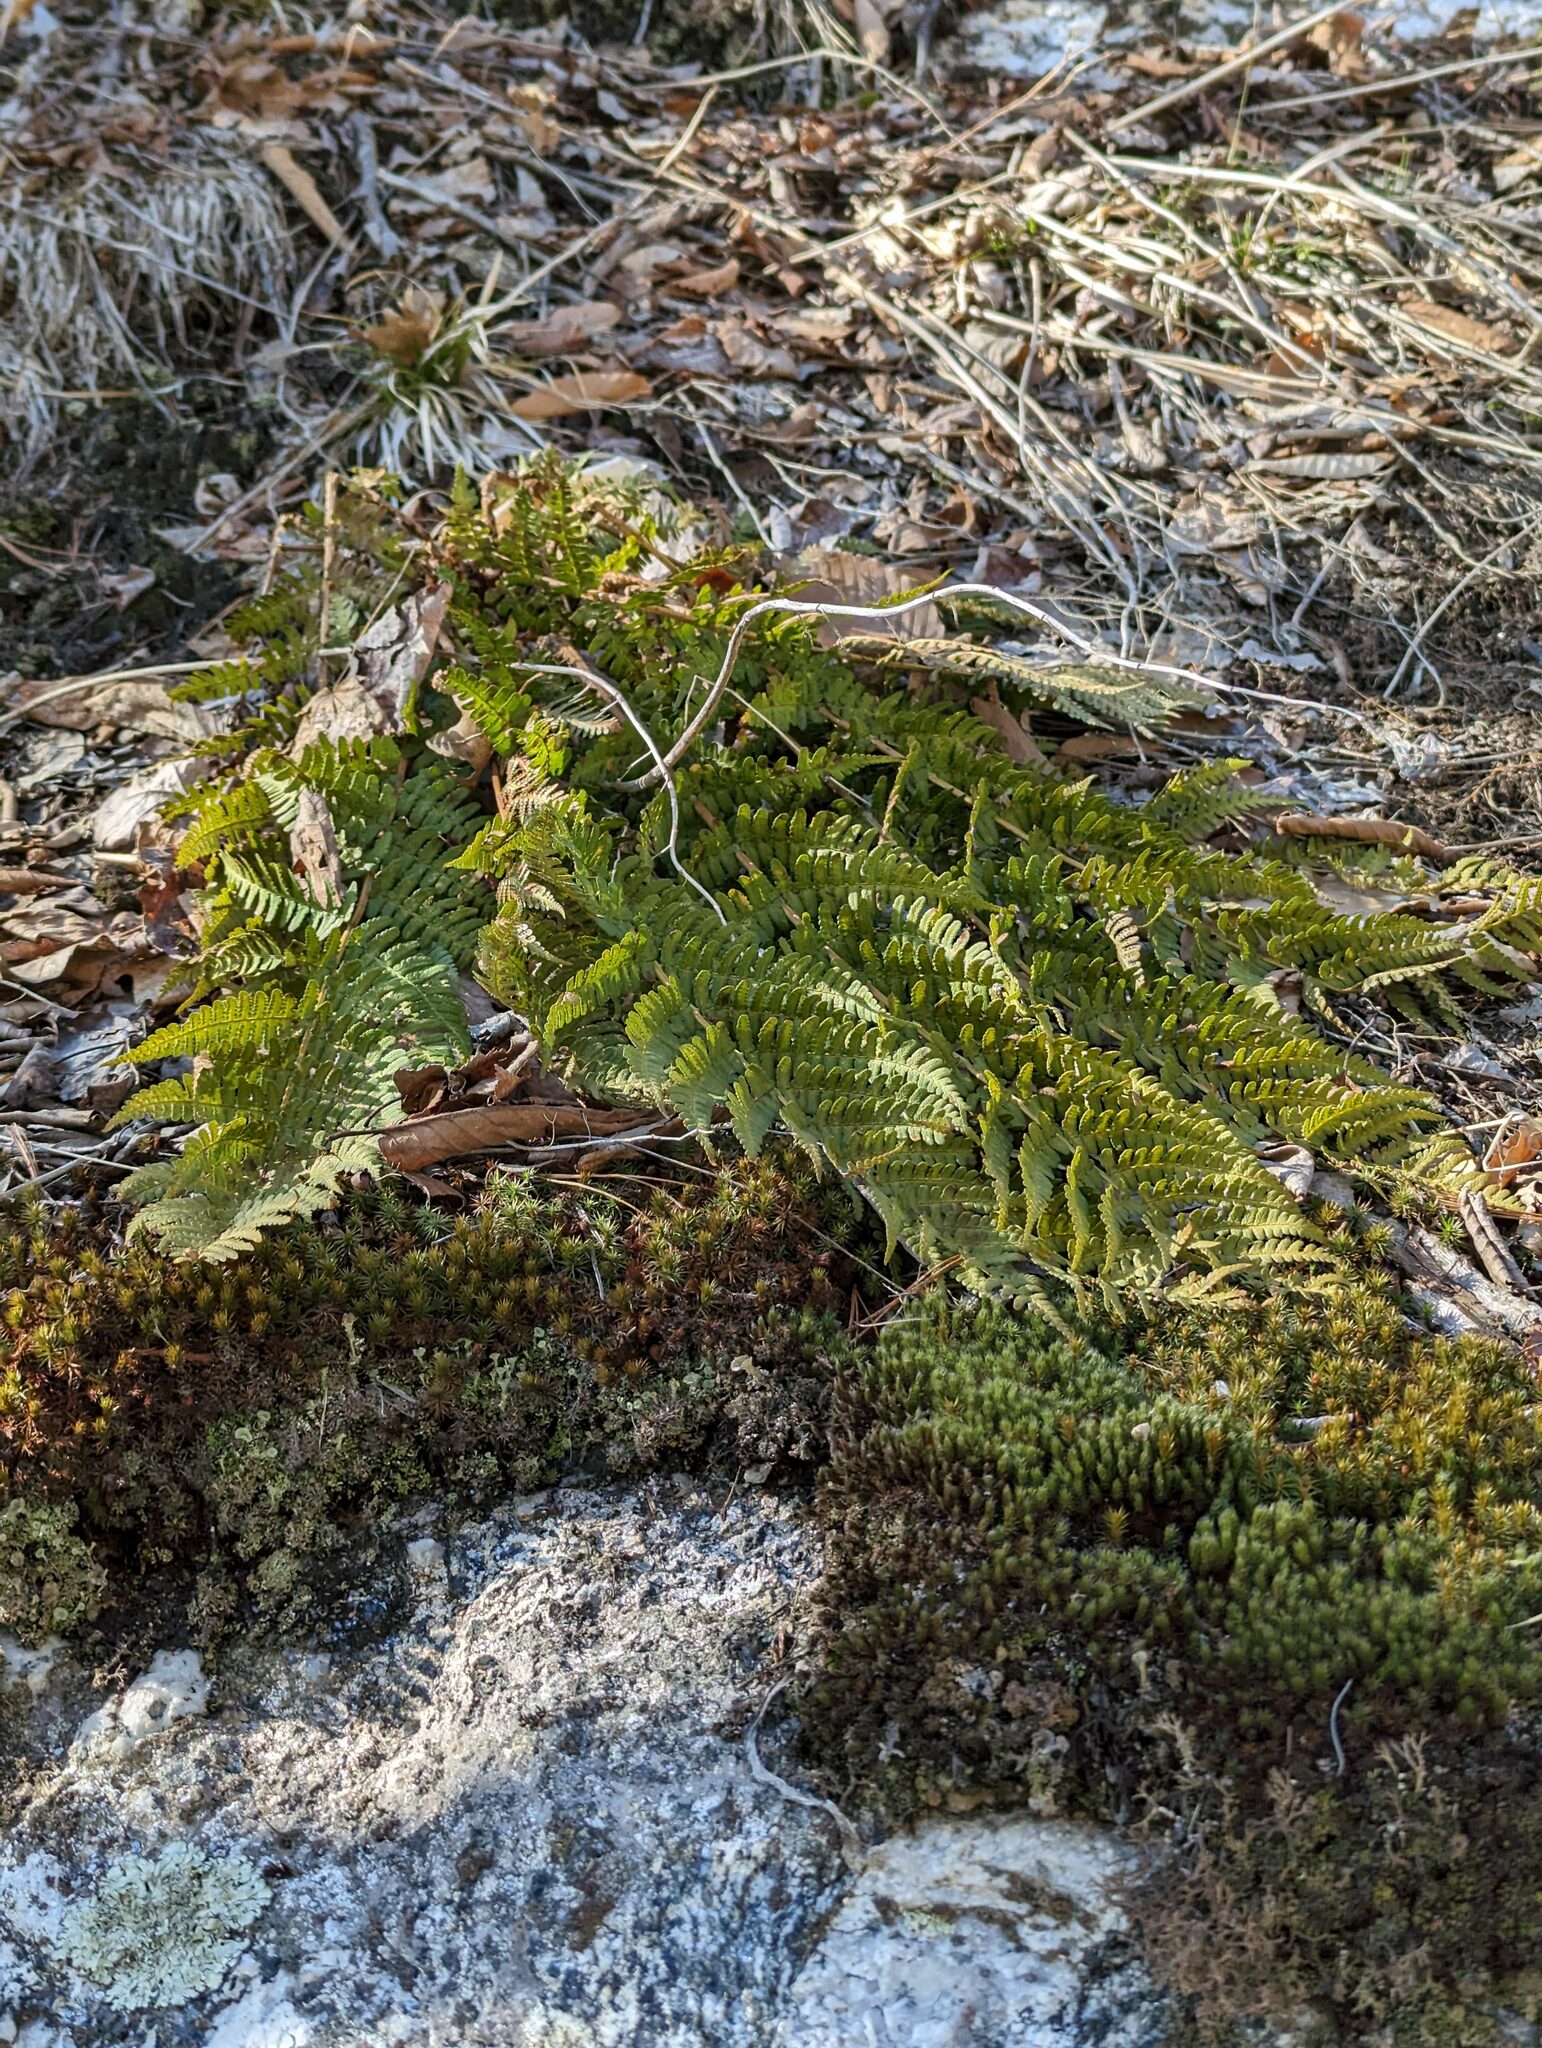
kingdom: Plantae
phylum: Tracheophyta
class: Polypodiopsida
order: Polypodiales
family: Dryopteridaceae
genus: Dryopteris
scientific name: Dryopteris marginalis
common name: Marginal wood fern
